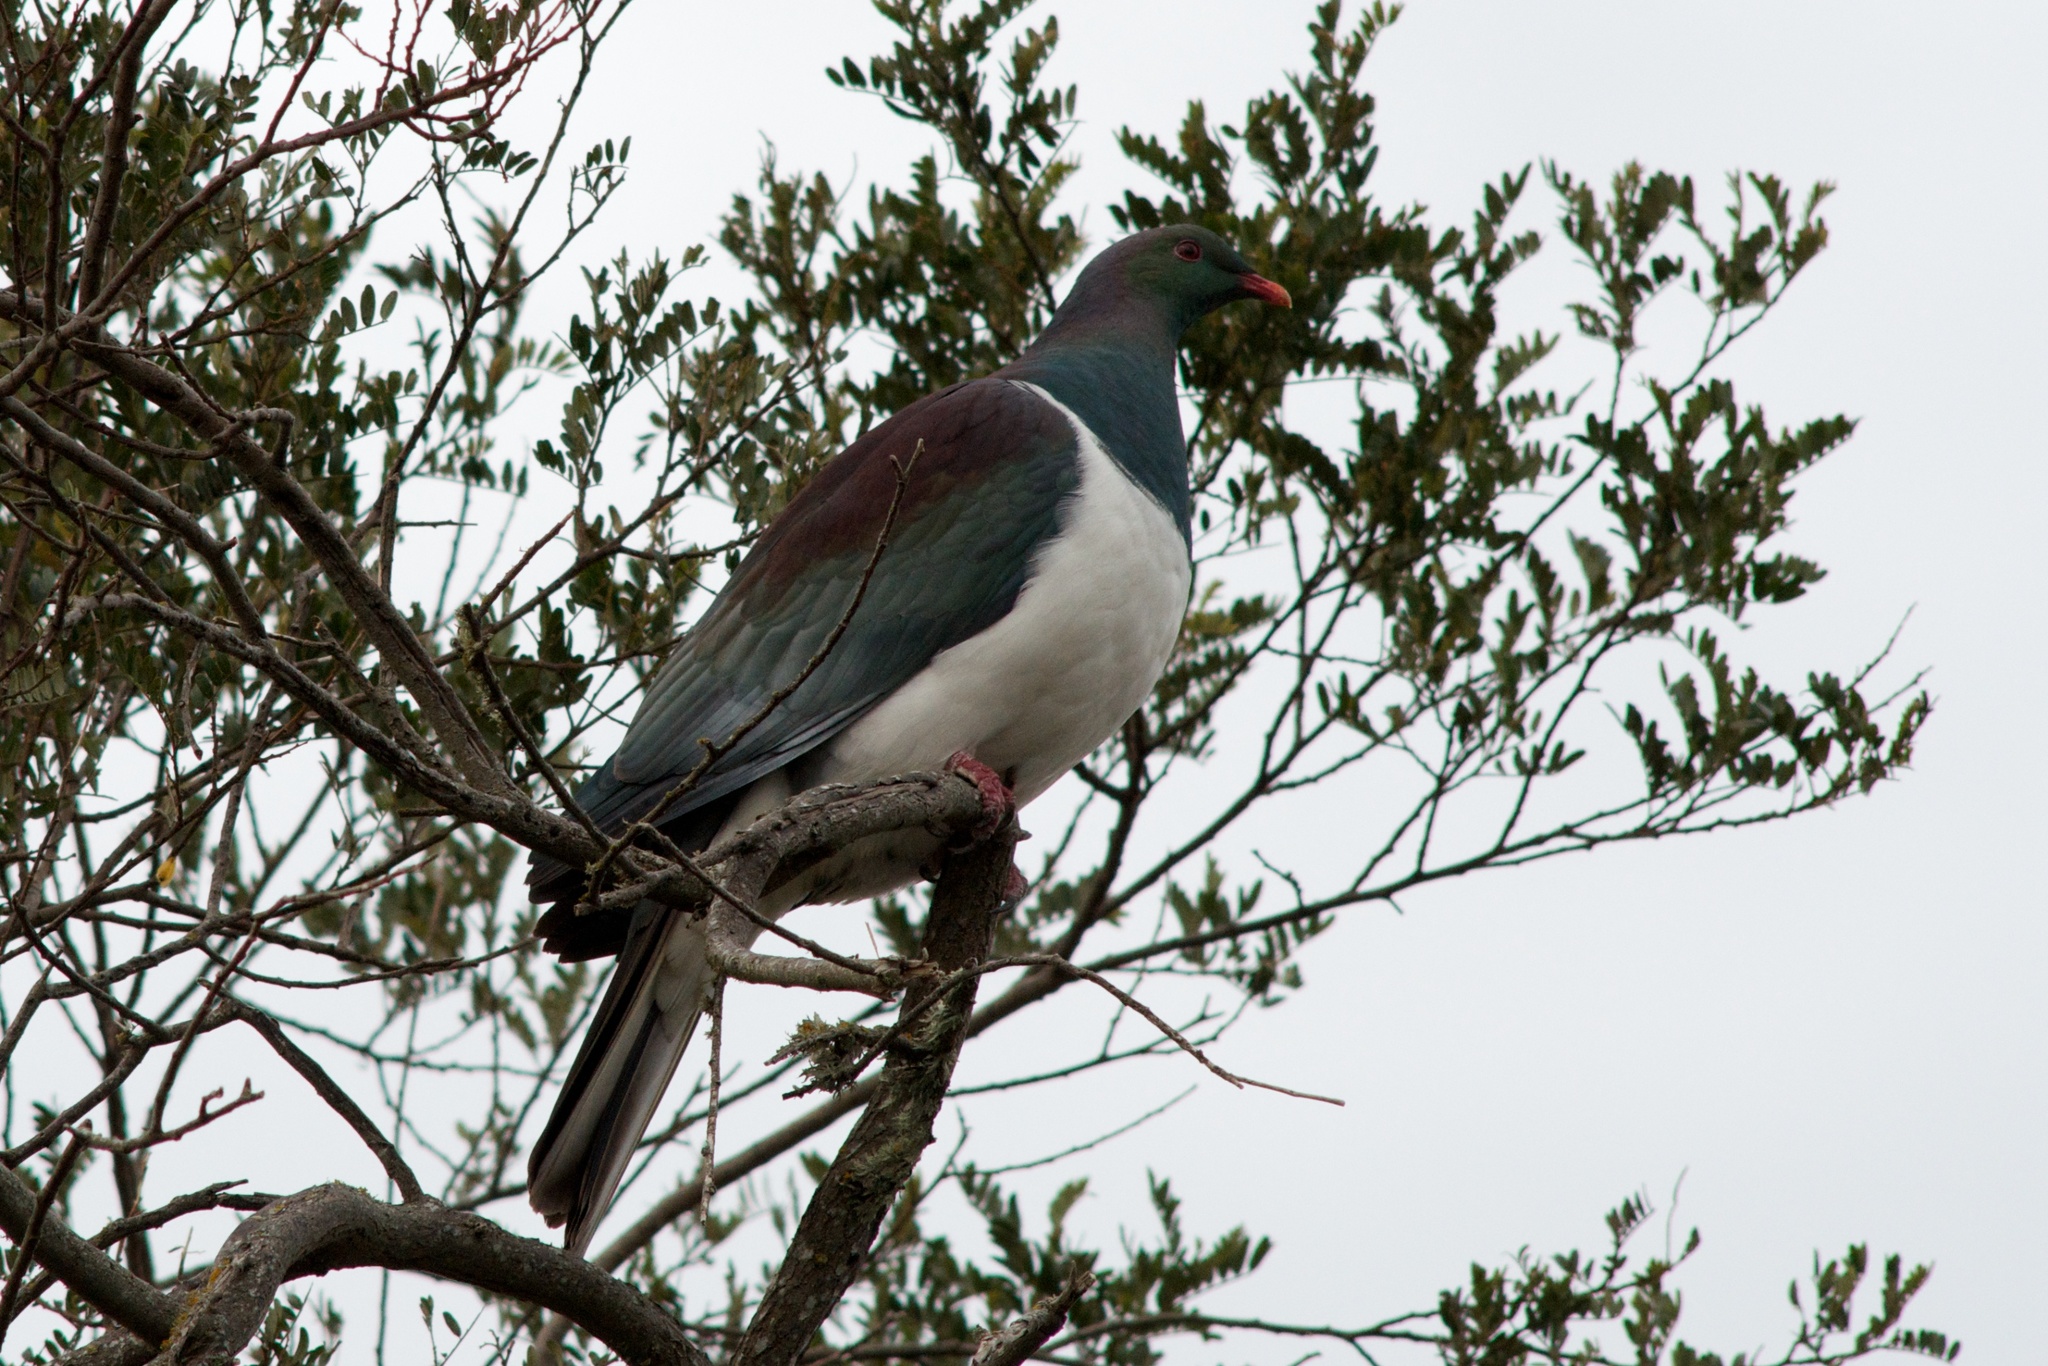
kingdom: Animalia
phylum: Chordata
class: Aves
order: Columbiformes
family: Columbidae
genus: Hemiphaga
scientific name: Hemiphaga novaeseelandiae
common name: New zealand pigeon
